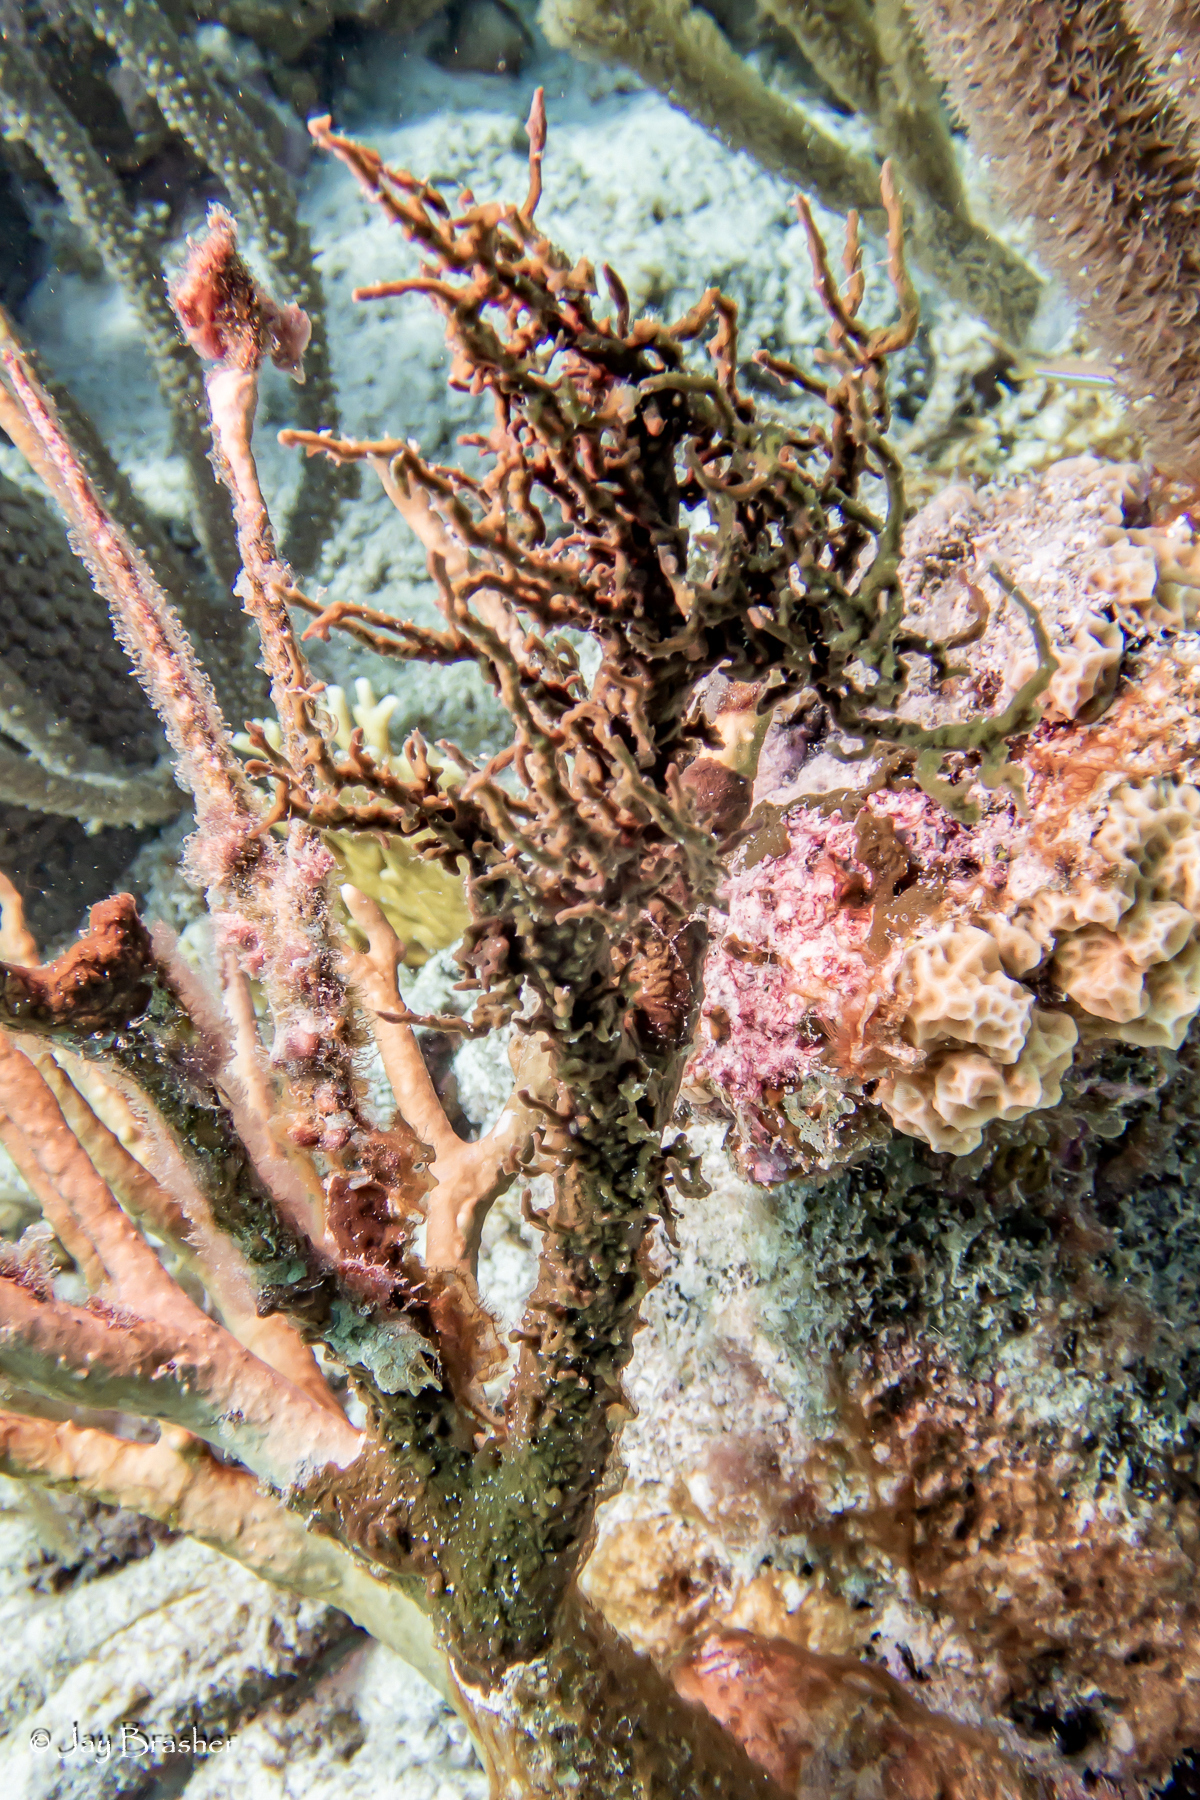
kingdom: Animalia
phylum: Porifera
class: Demospongiae
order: Bubarida
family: Dictyonellidae
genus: Dictyonella
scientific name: Dictyonella funicularis
